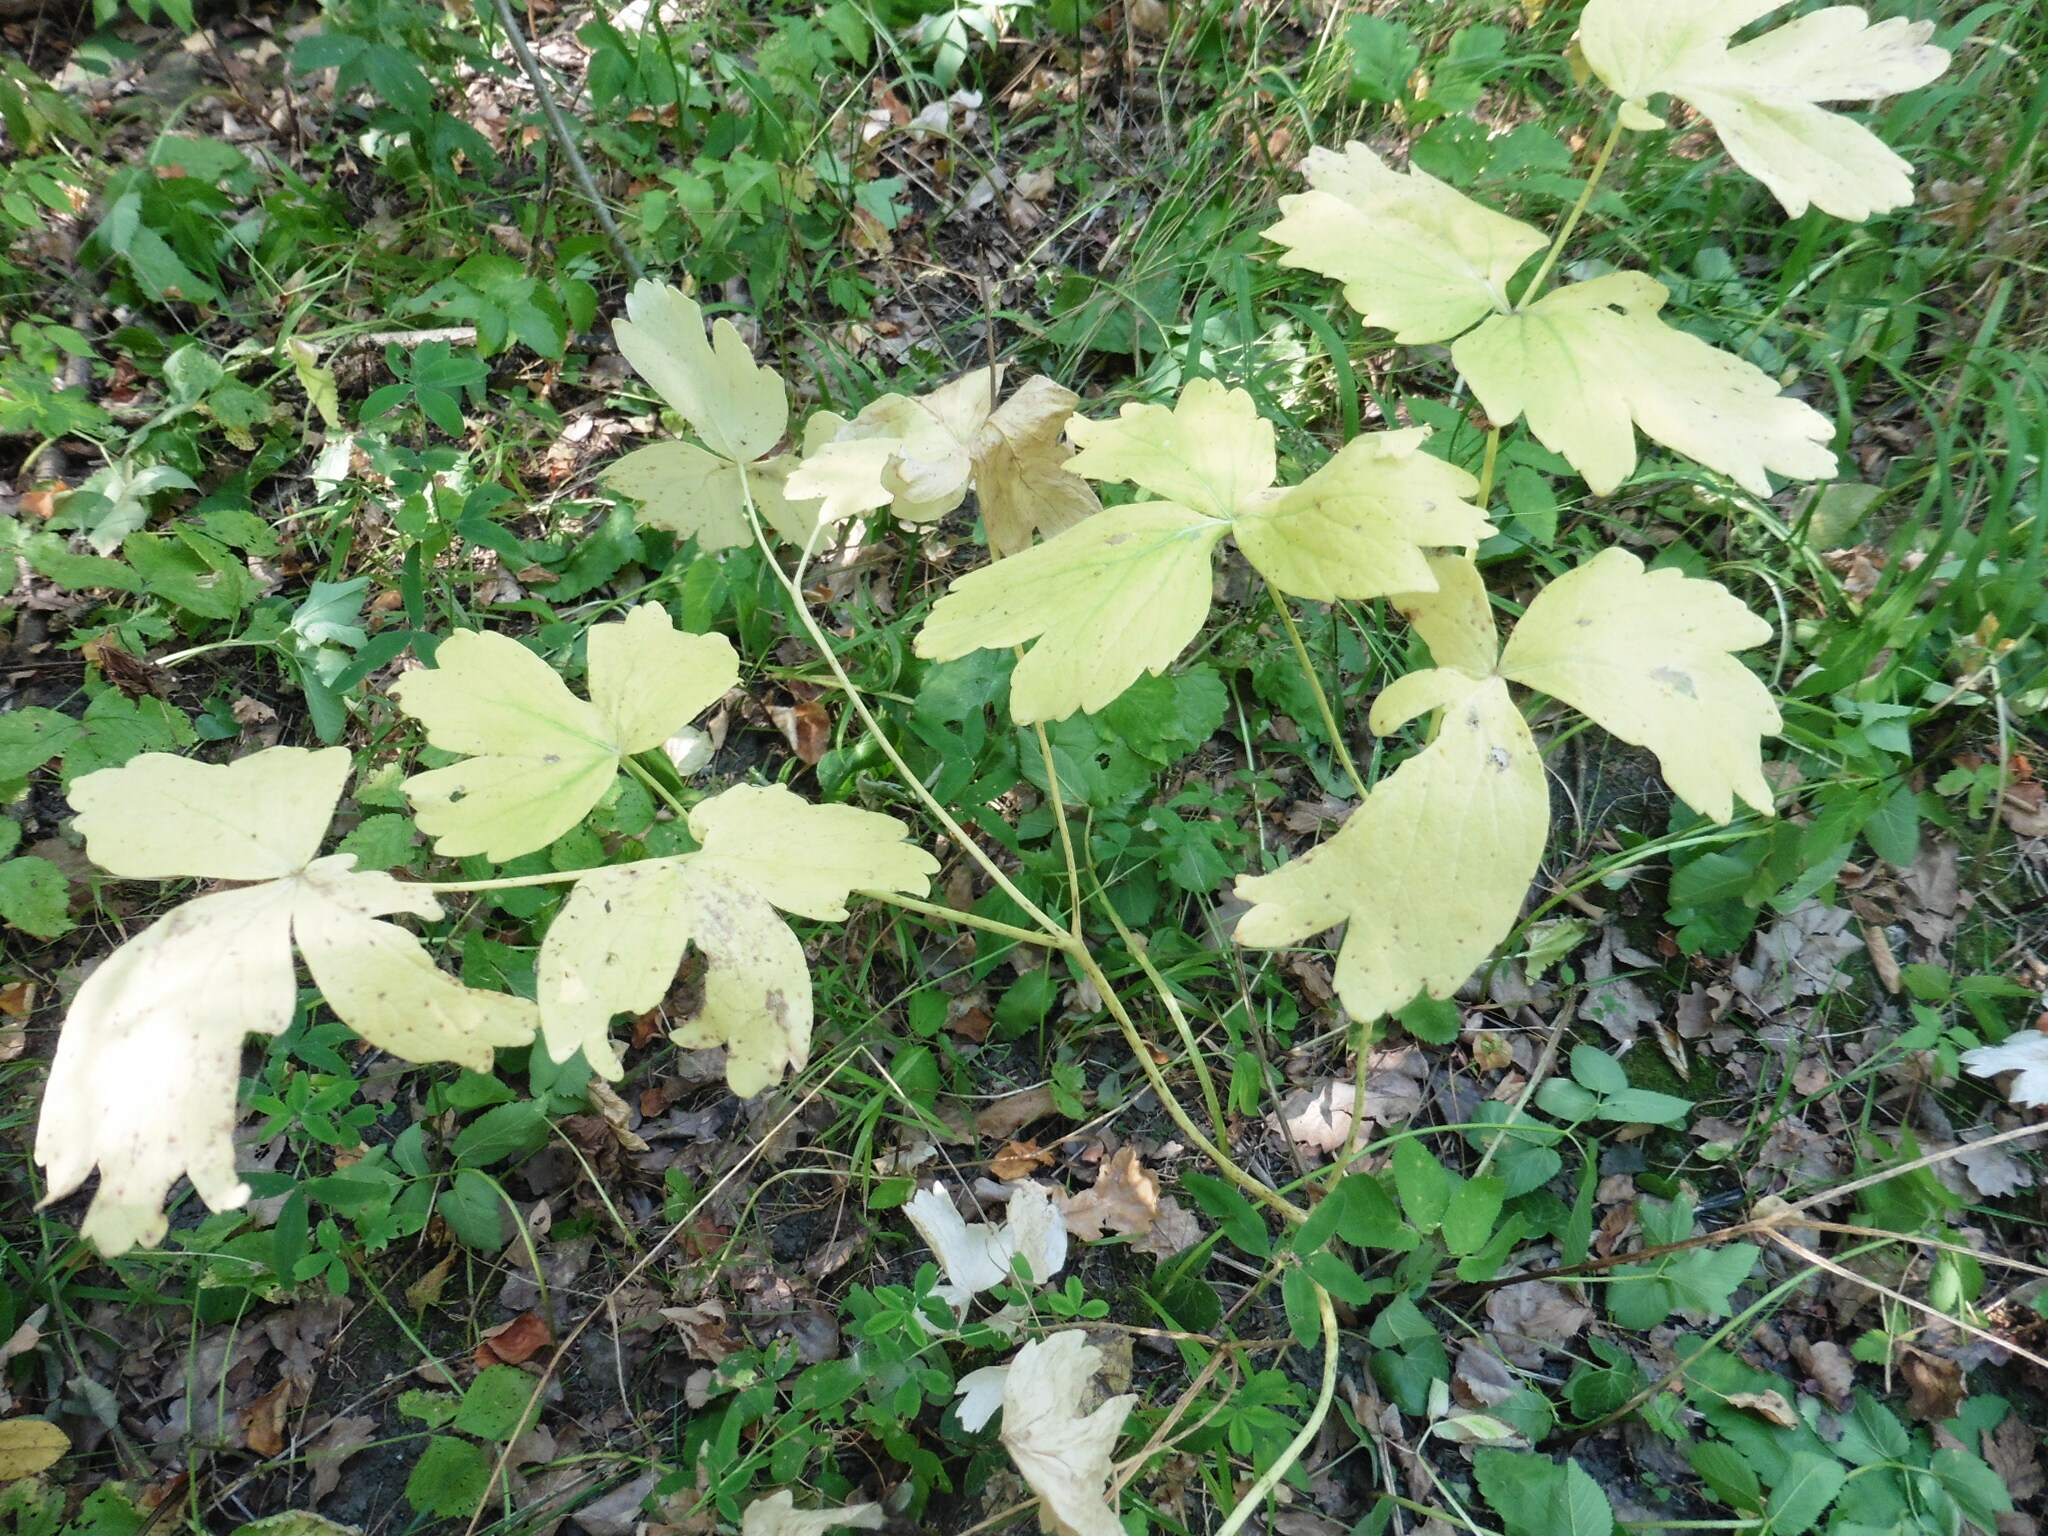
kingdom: Plantae
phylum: Tracheophyta
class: Magnoliopsida
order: Apiales
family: Apiaceae
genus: Laser
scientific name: Laser trilobum
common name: Laser
